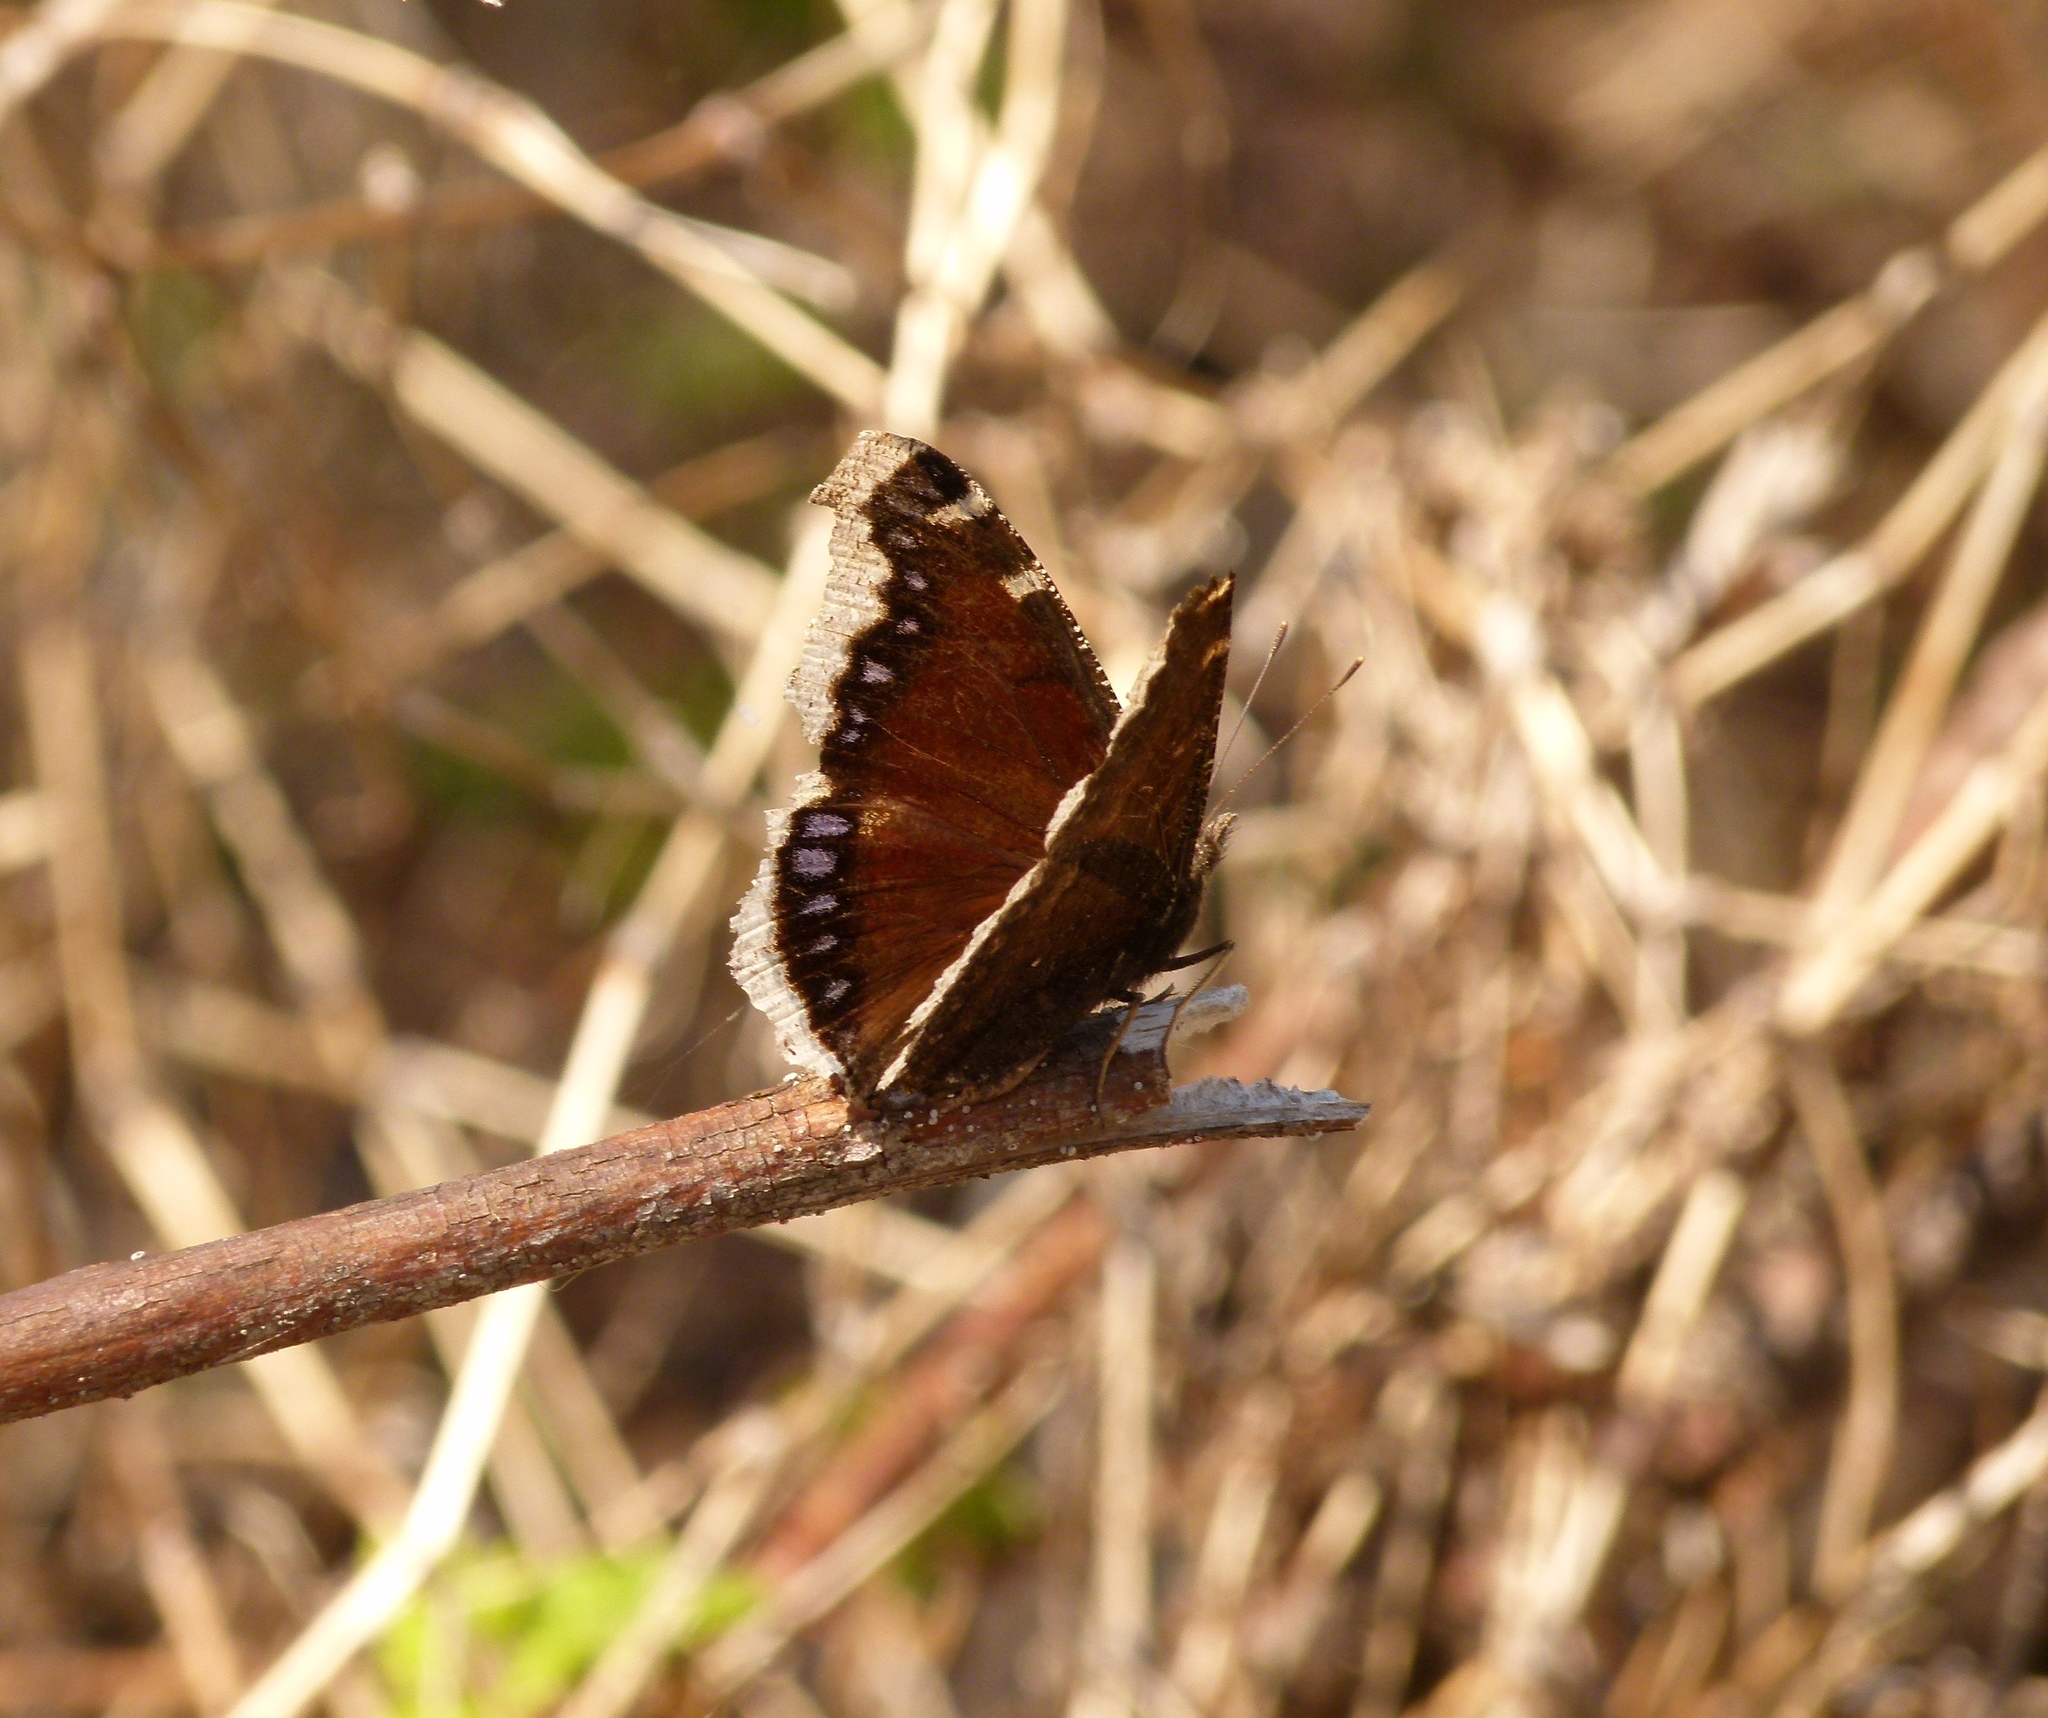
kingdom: Animalia
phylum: Arthropoda
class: Insecta
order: Lepidoptera
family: Nymphalidae
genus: Nymphalis
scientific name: Nymphalis antiopa
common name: Camberwell beauty
